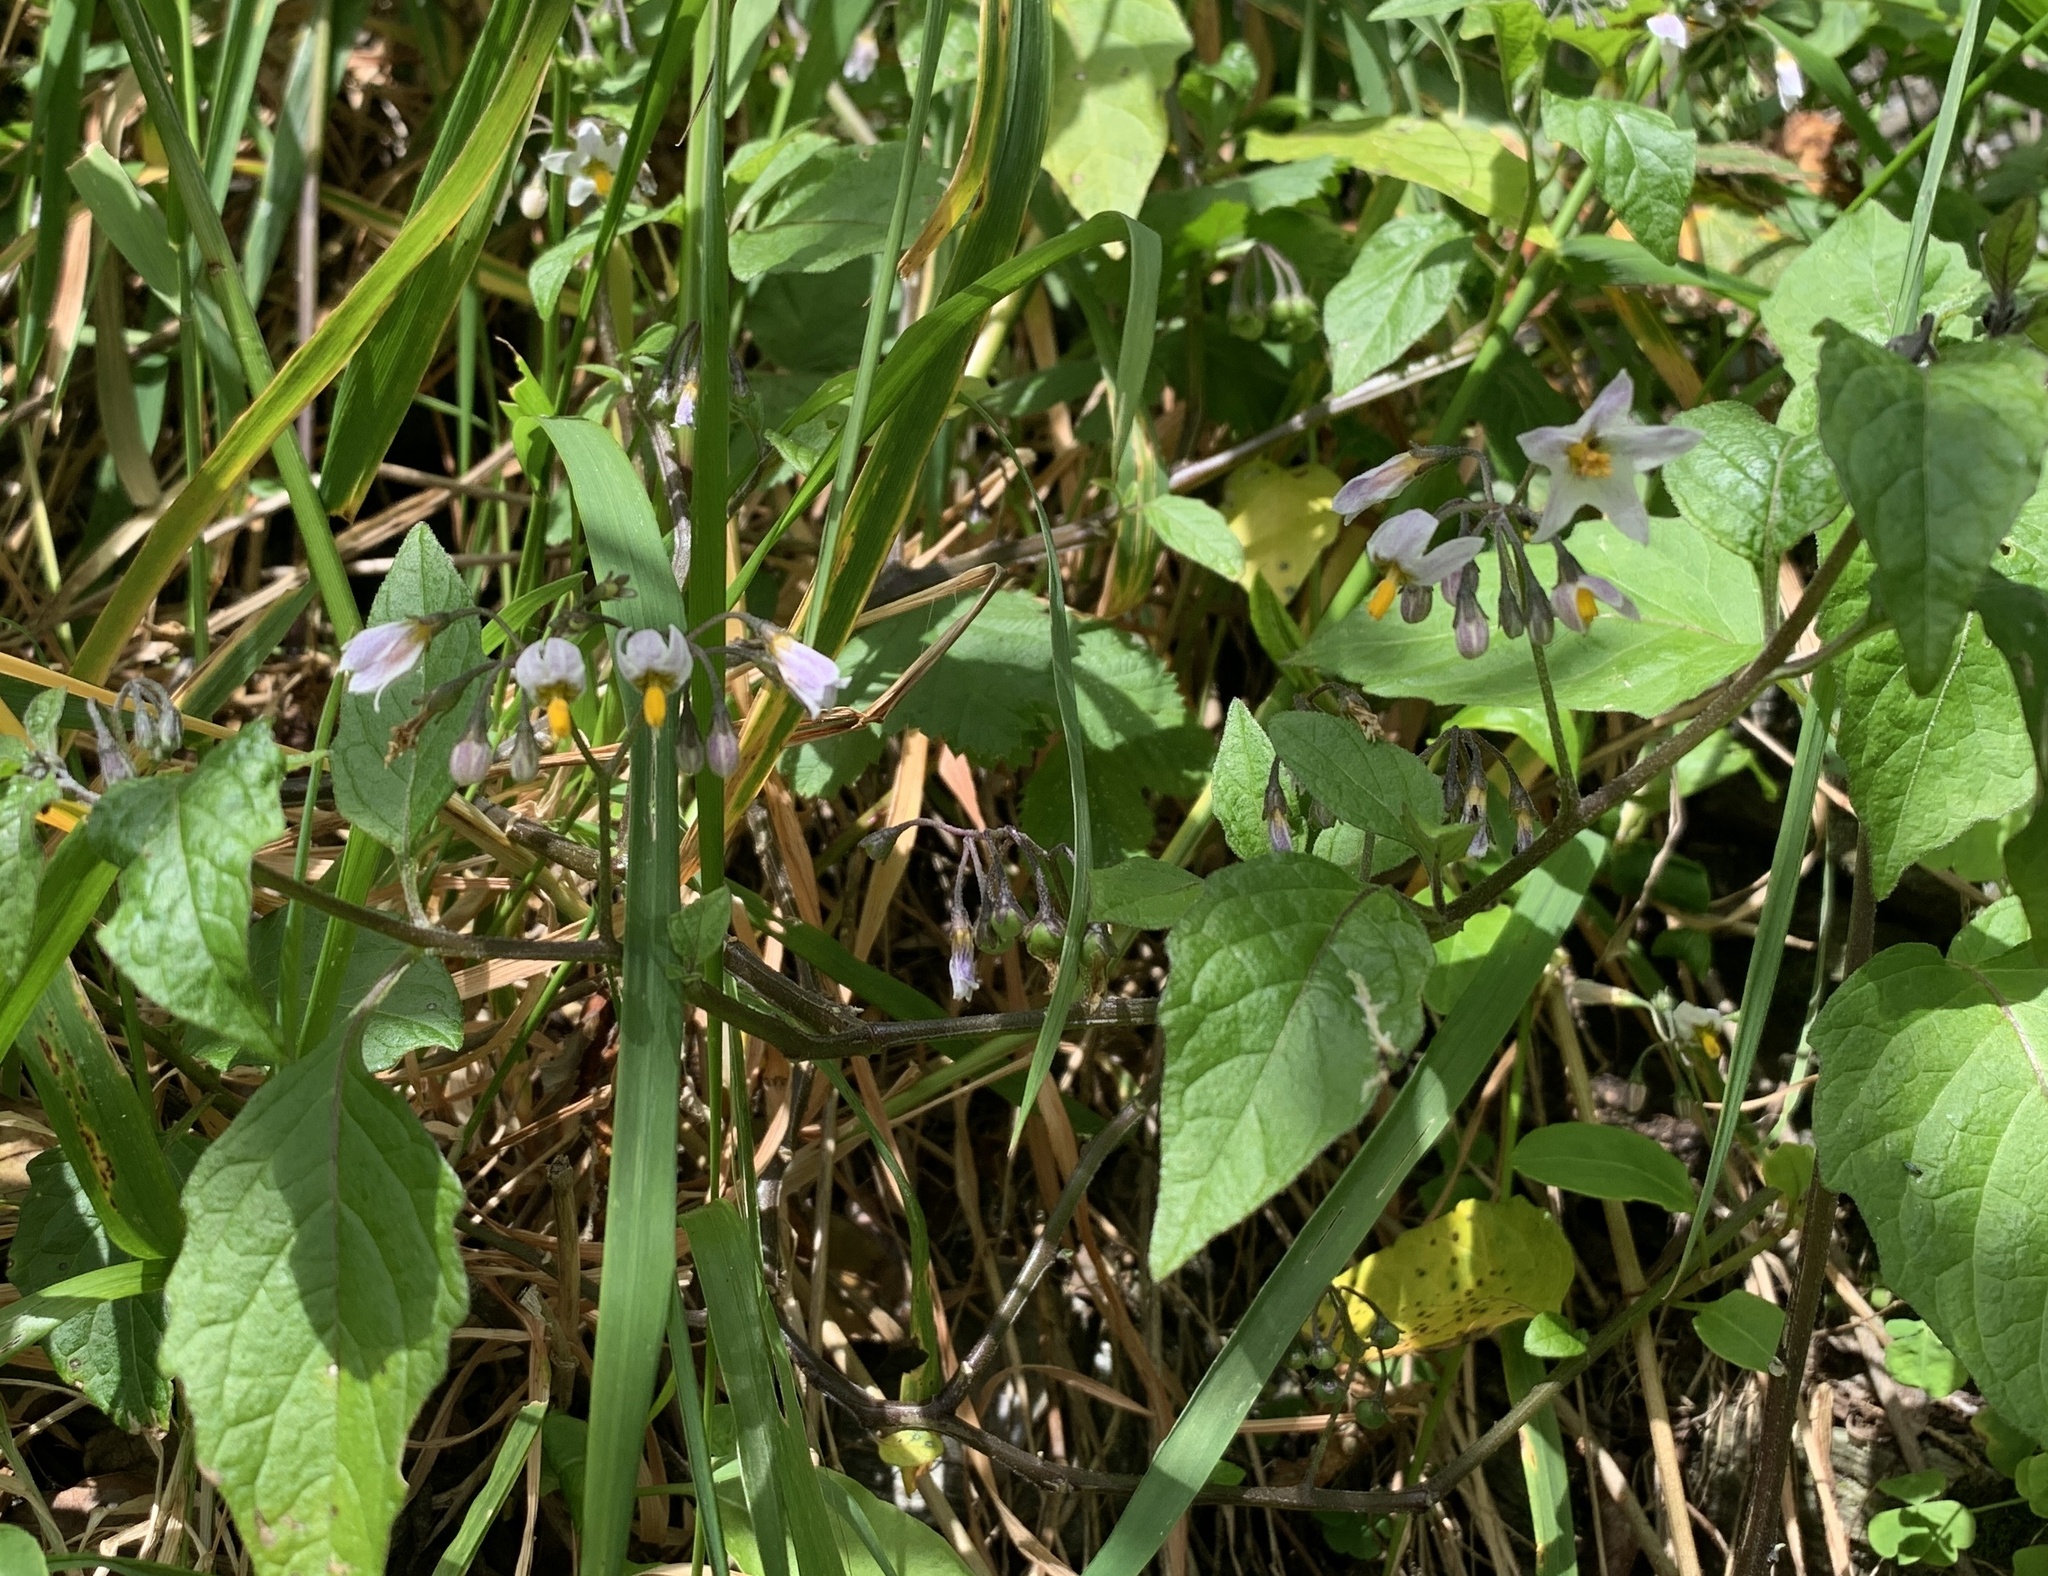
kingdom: Plantae
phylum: Tracheophyta
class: Magnoliopsida
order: Asterales
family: Asteraceae
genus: Silybum
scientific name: Silybum marianum
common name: Milk thistle
